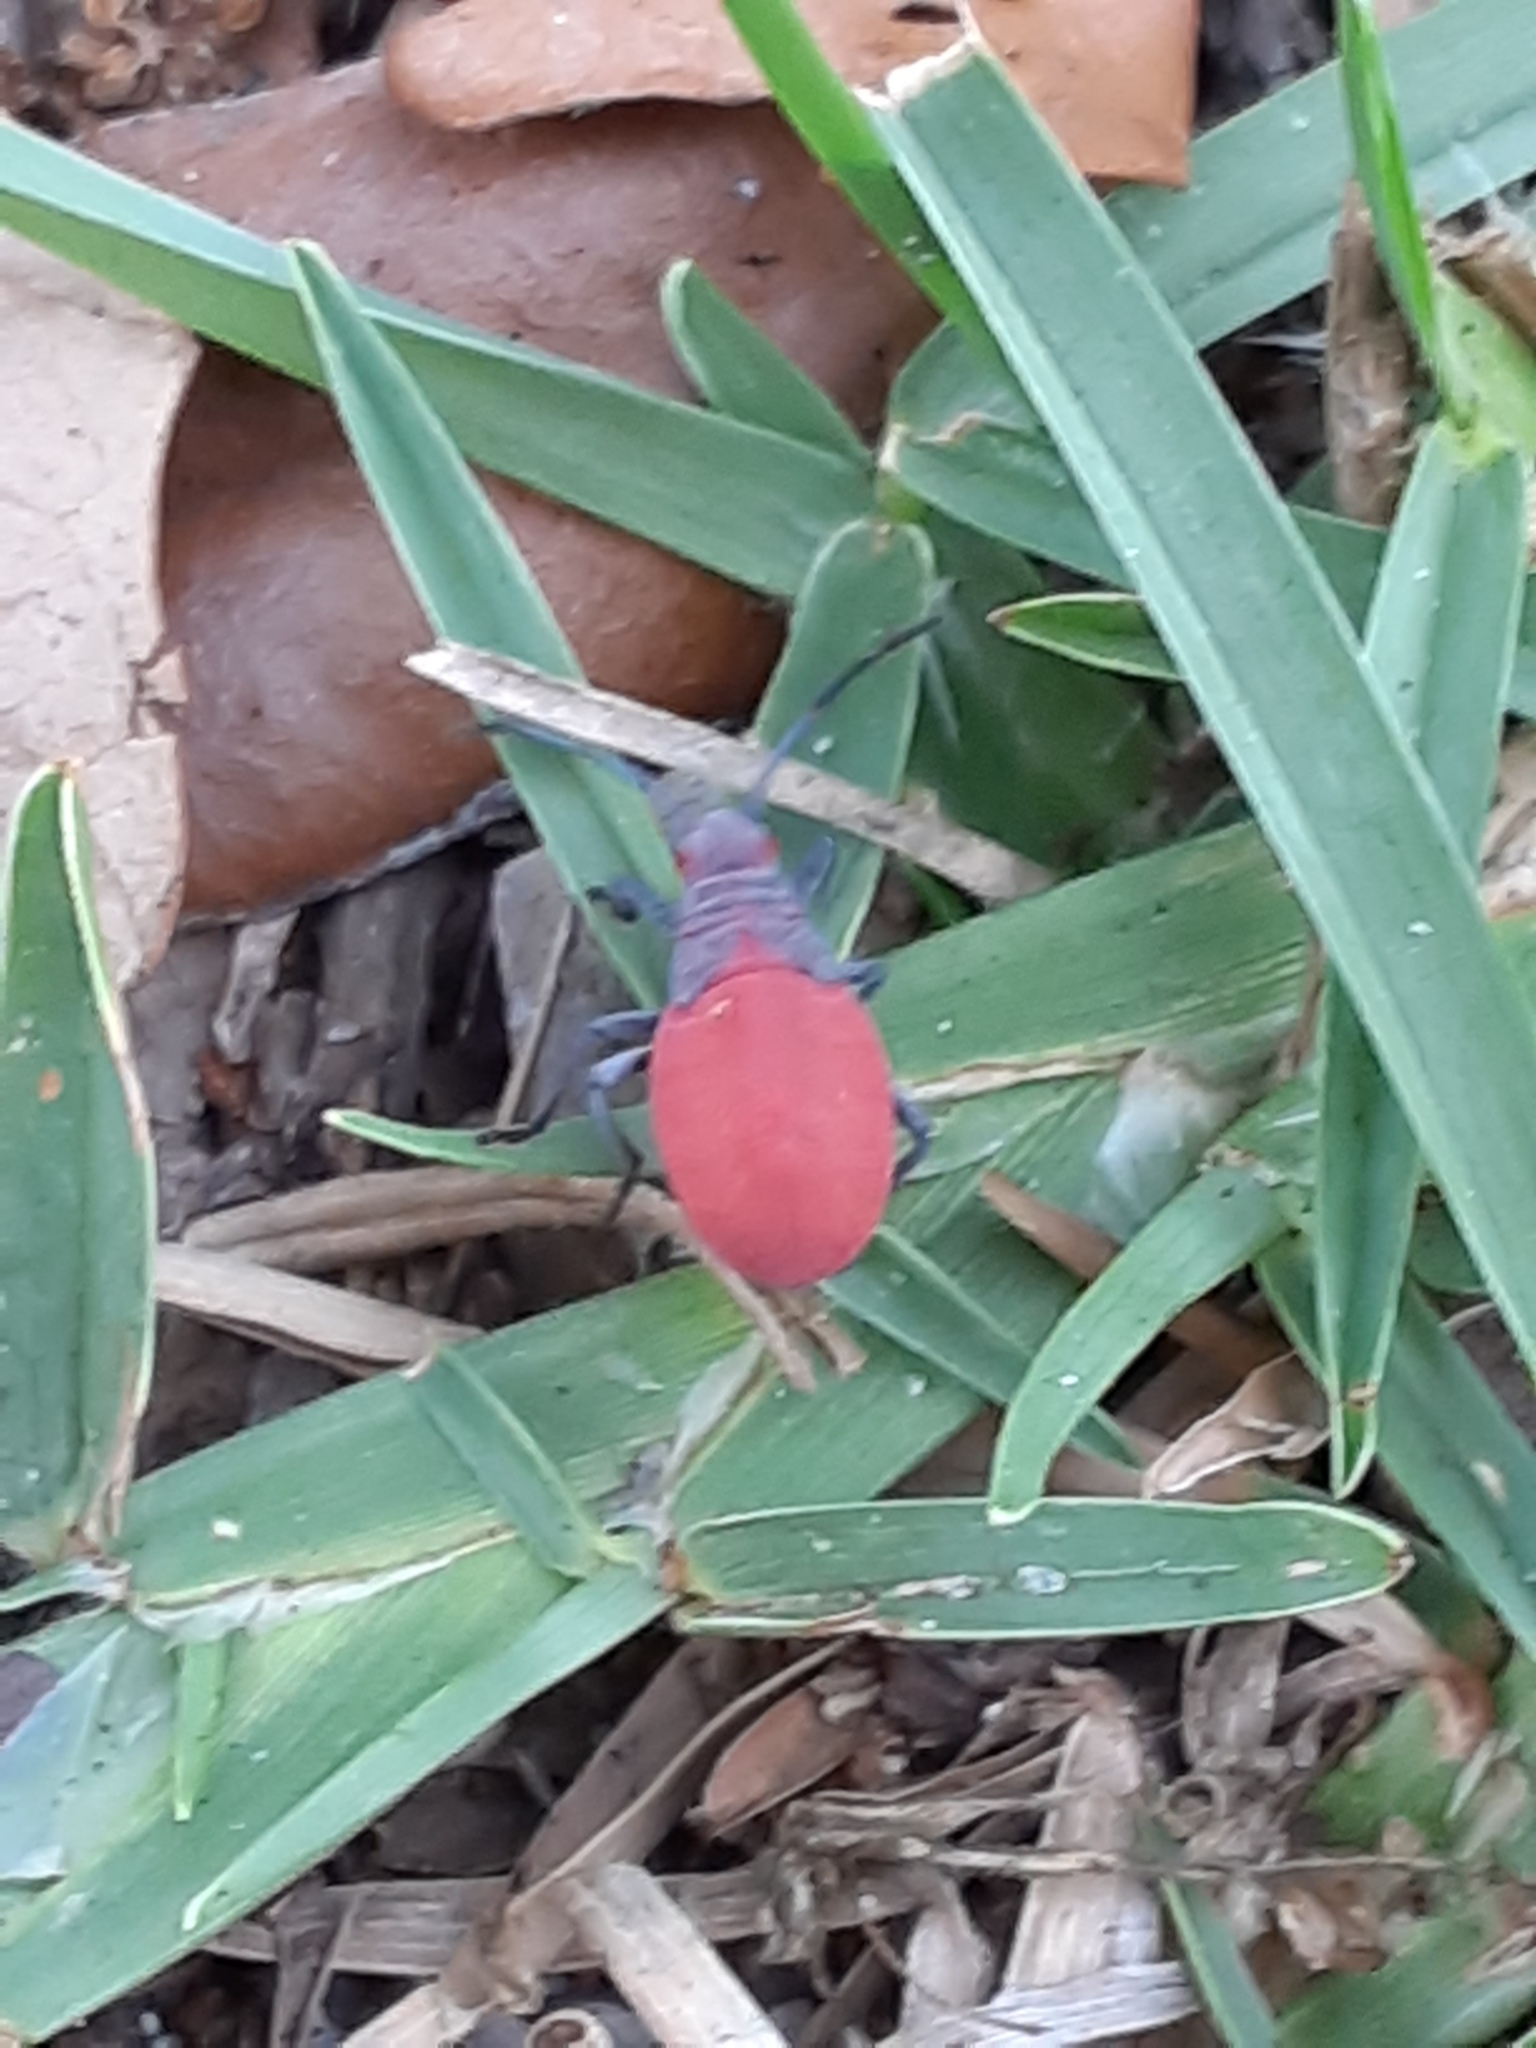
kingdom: Animalia
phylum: Arthropoda
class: Insecta
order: Hemiptera
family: Rhopalidae
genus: Jadera
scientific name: Jadera haematoloma
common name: Red-shouldered bug
